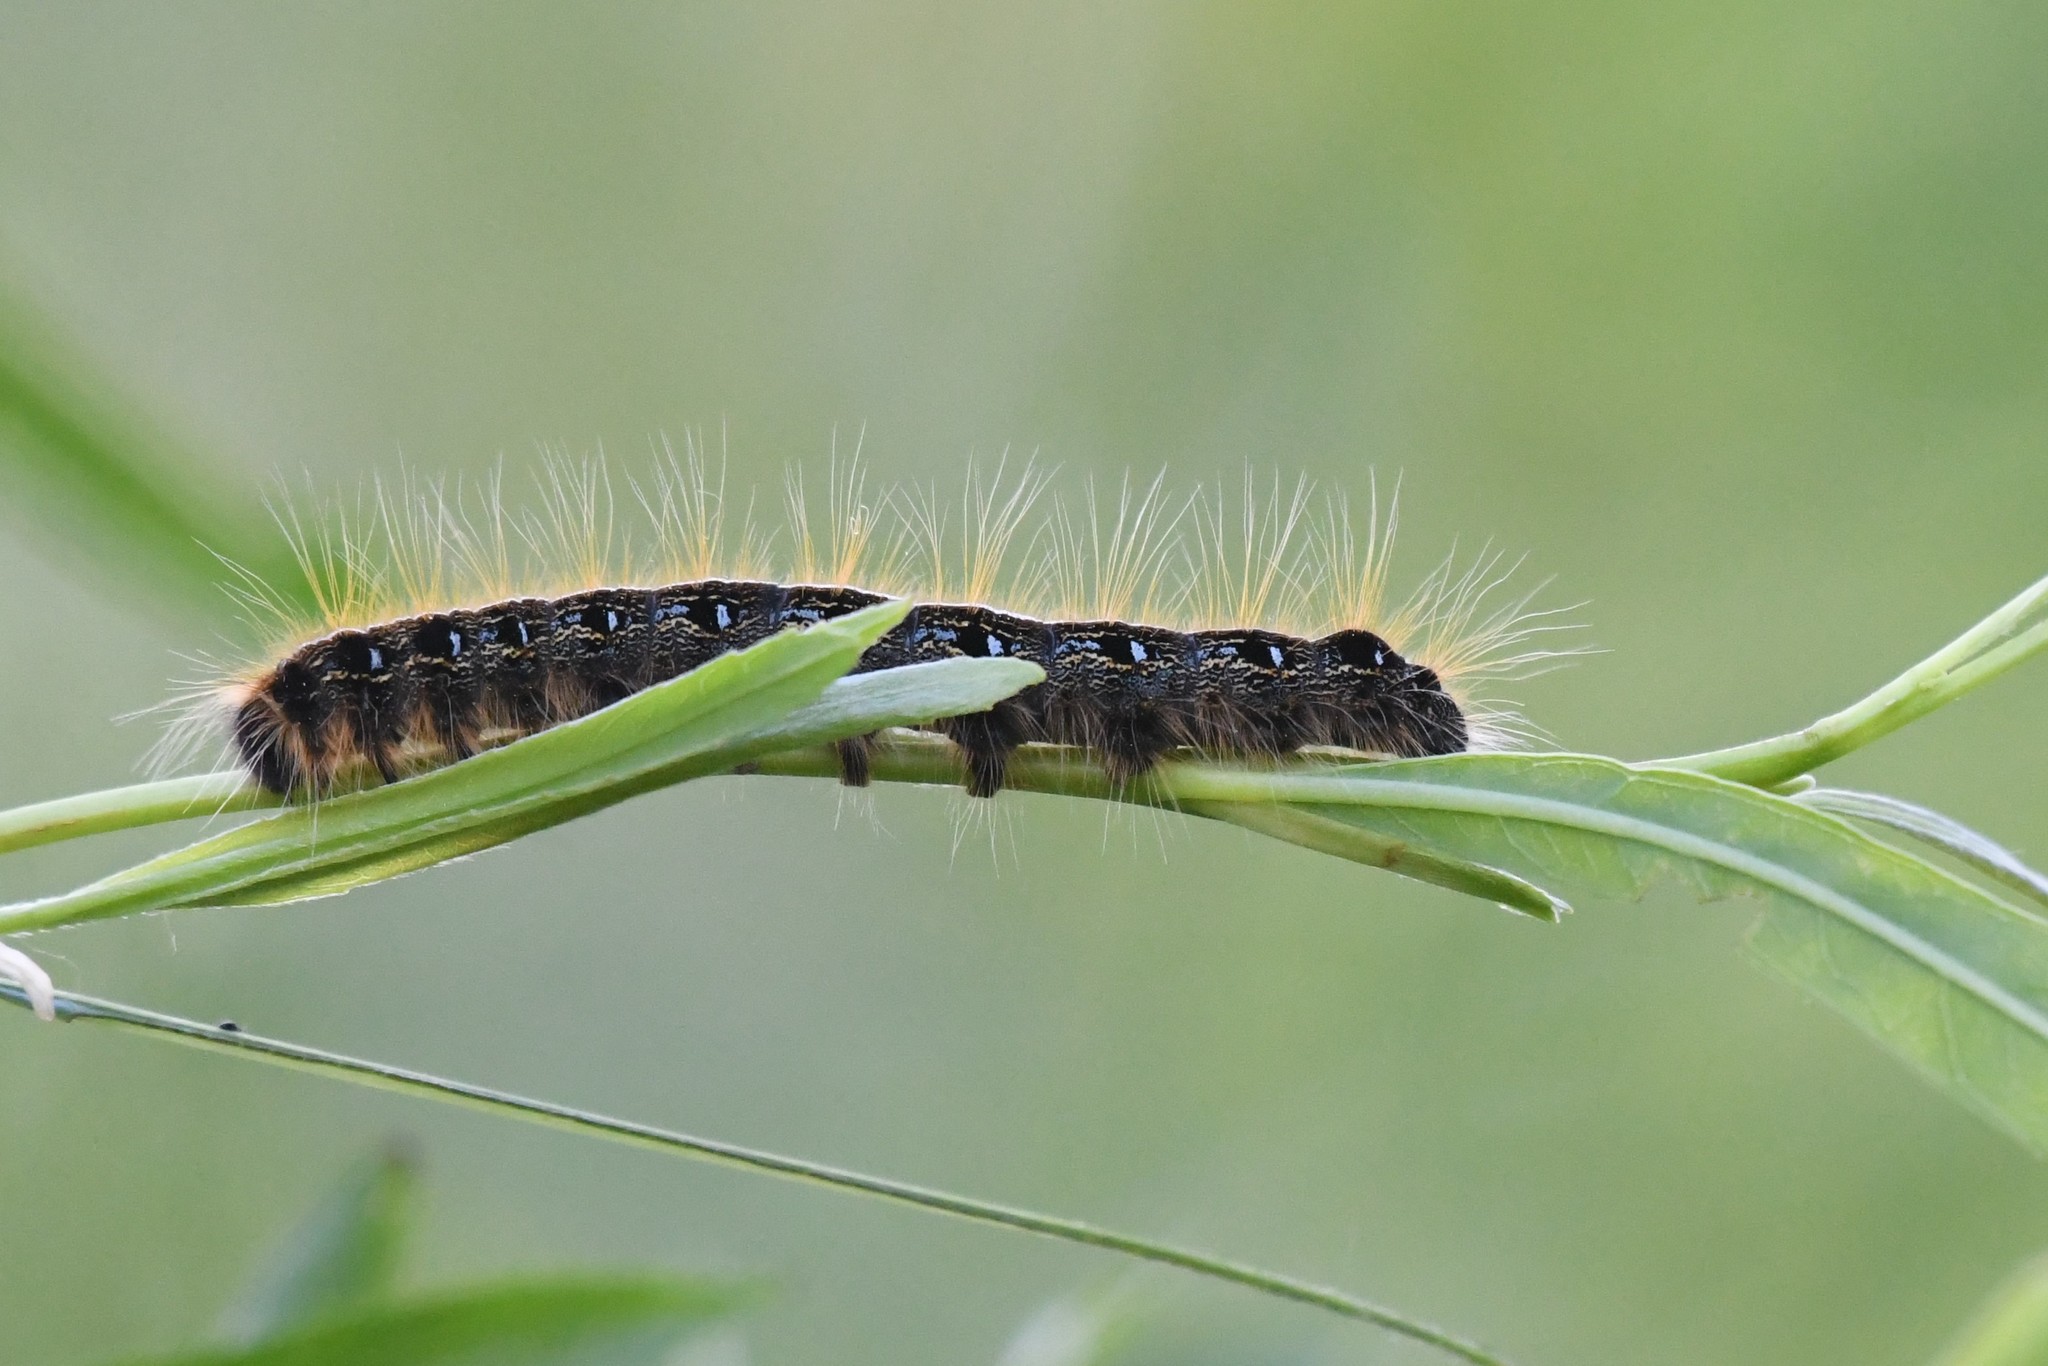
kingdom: Animalia
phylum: Arthropoda
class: Insecta
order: Lepidoptera
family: Lasiocampidae
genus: Malacosoma
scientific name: Malacosoma americana
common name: Eastern tent caterpillar moth
